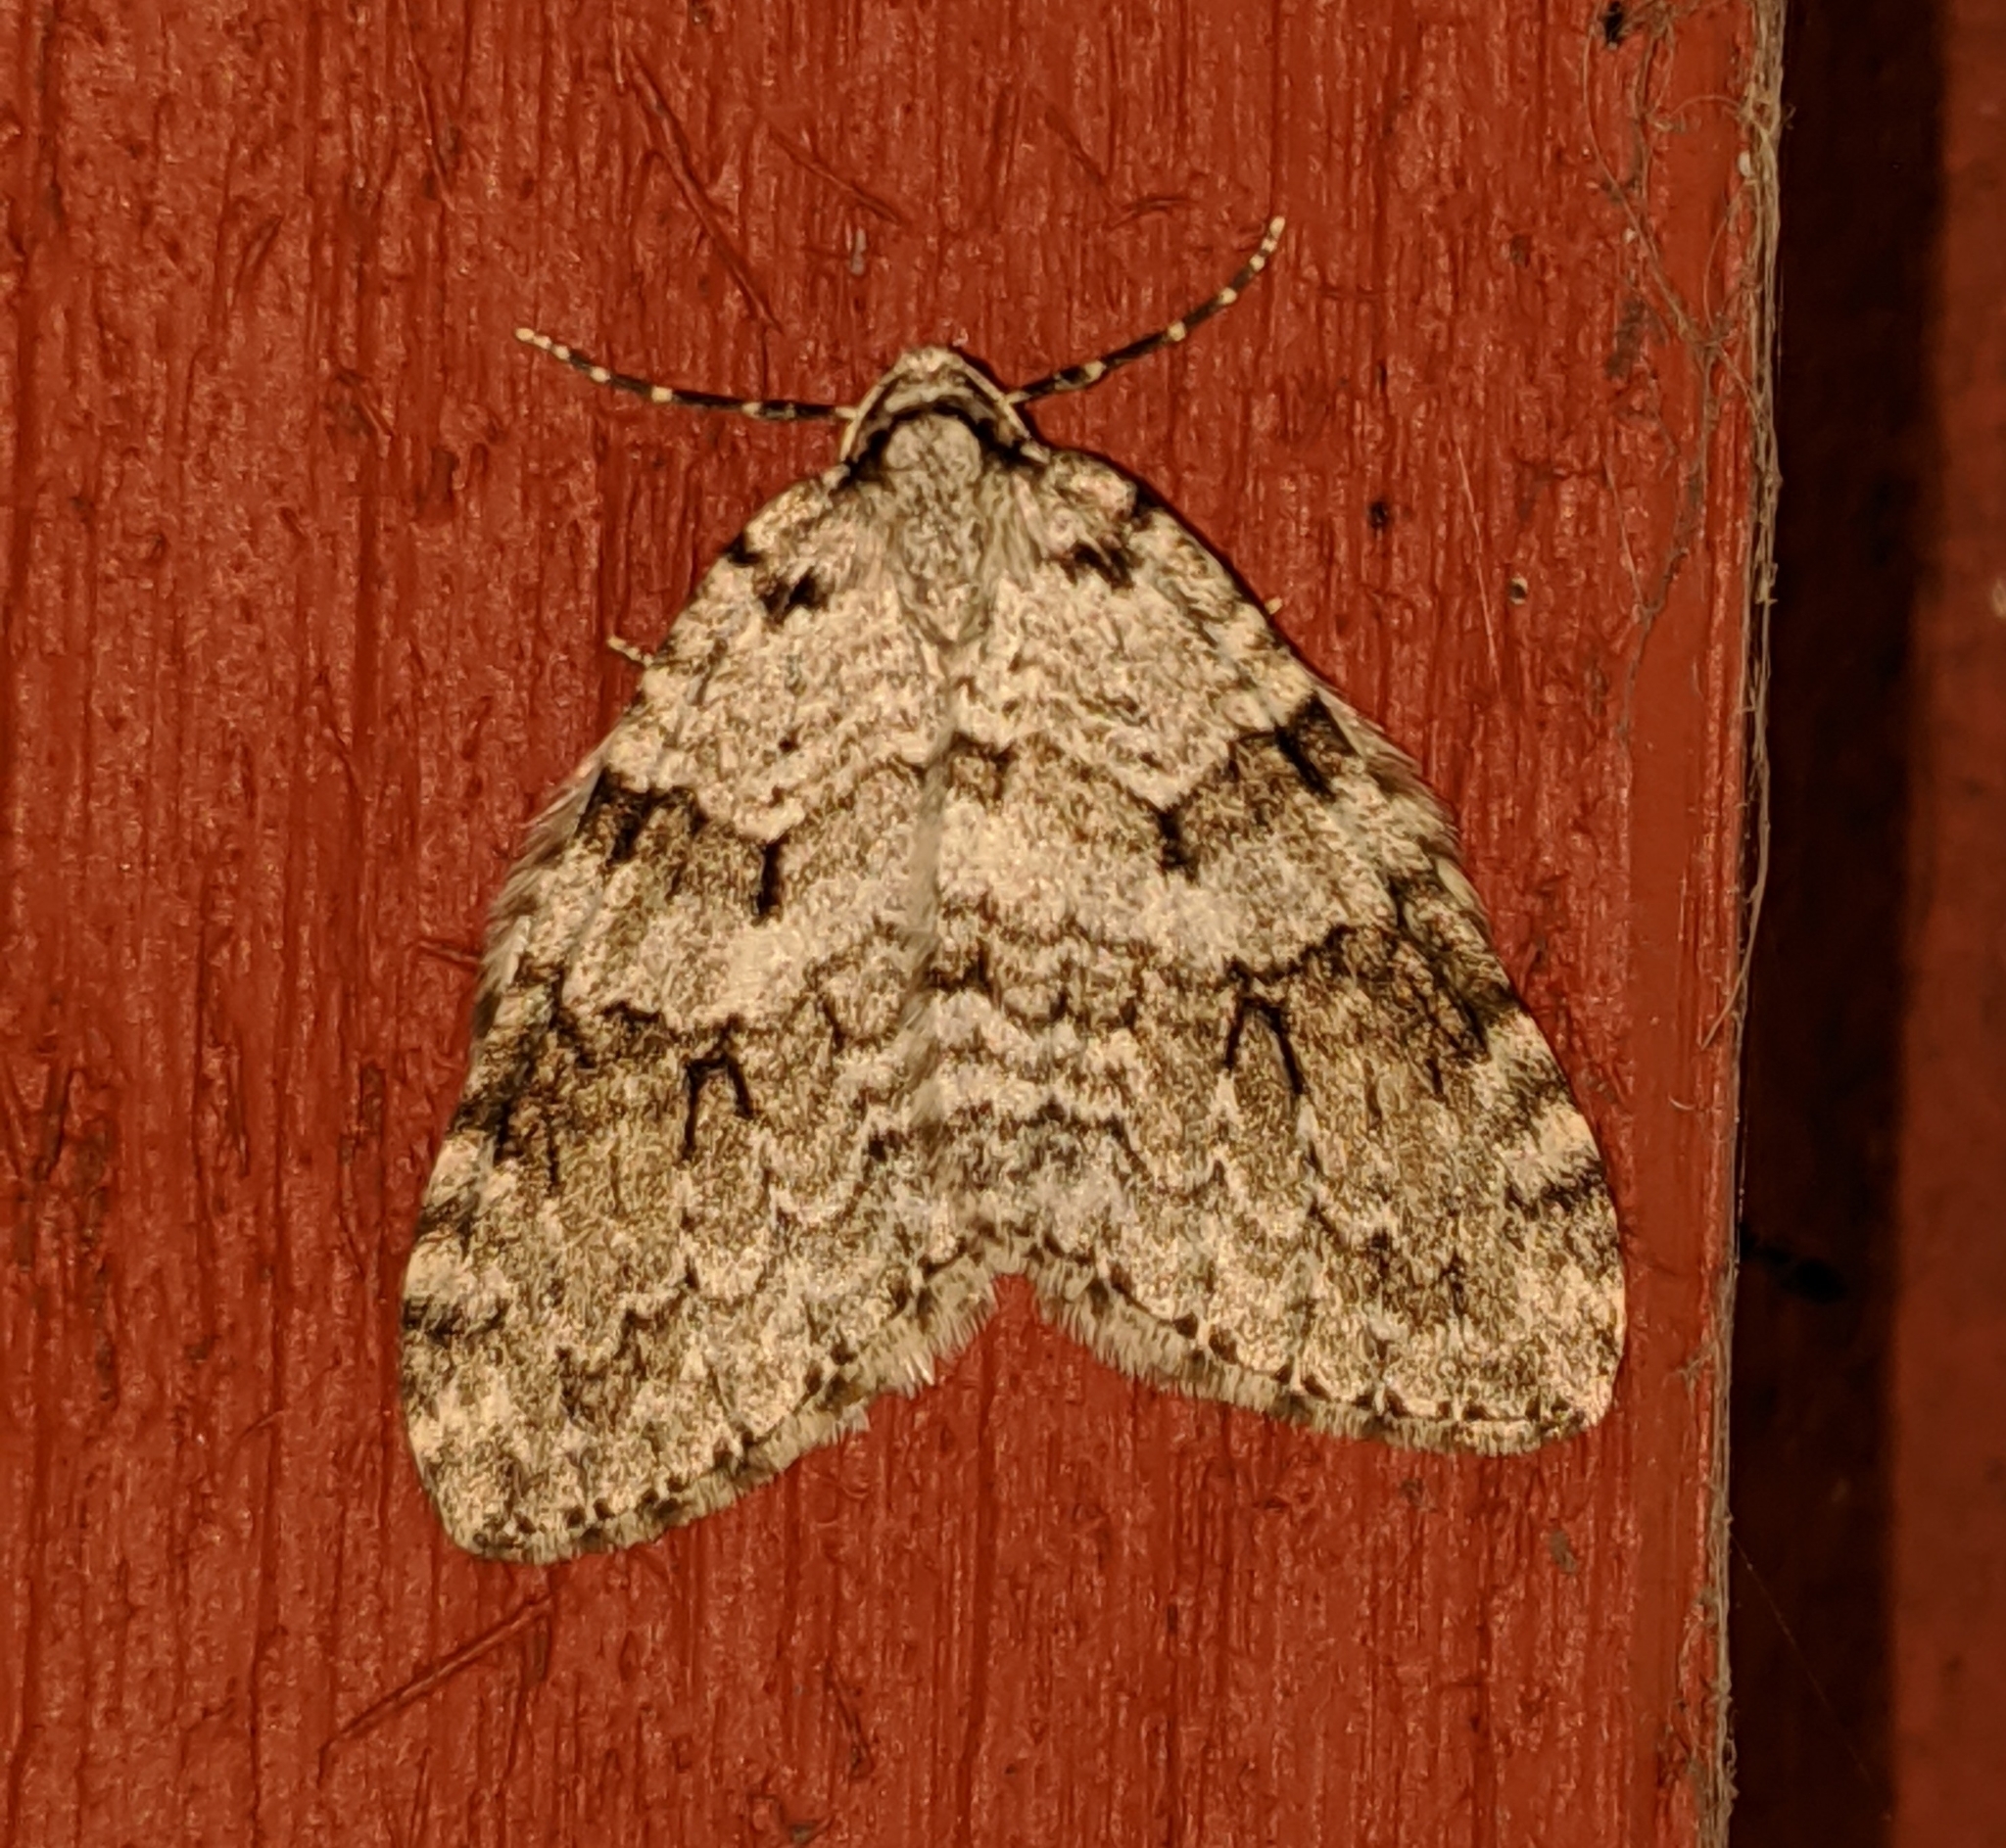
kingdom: Animalia
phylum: Arthropoda
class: Insecta
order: Lepidoptera
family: Geometridae
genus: Epirrita
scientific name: Epirrita autumnata
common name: Autumnal moth
